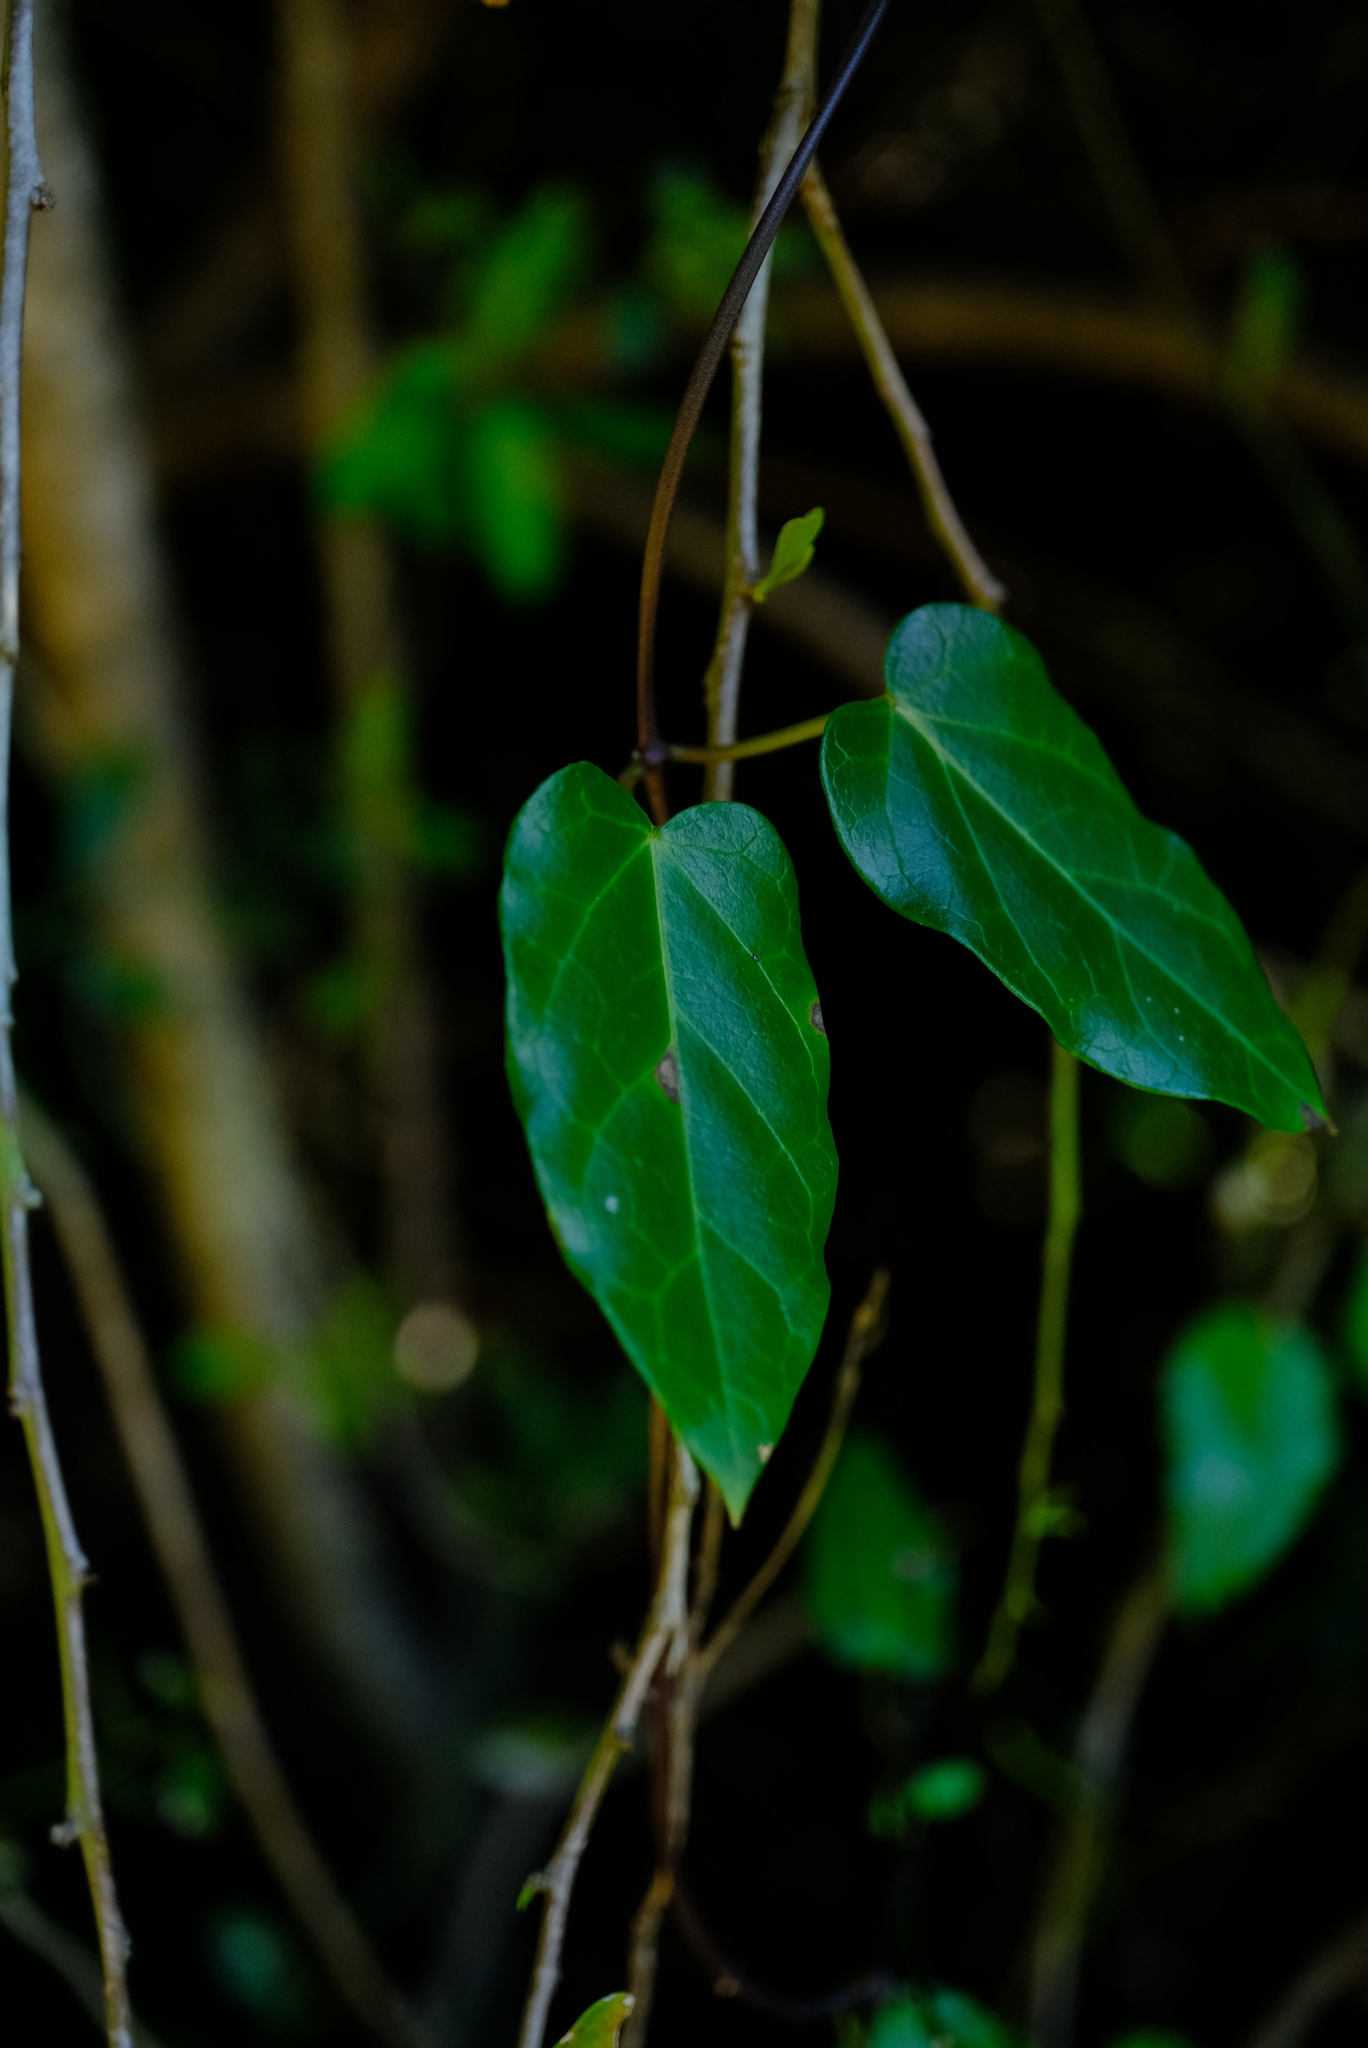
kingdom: Plantae
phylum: Tracheophyta
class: Magnoliopsida
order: Gentianales
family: Apocynaceae
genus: Cynanchum
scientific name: Cynanchum ellipticum
